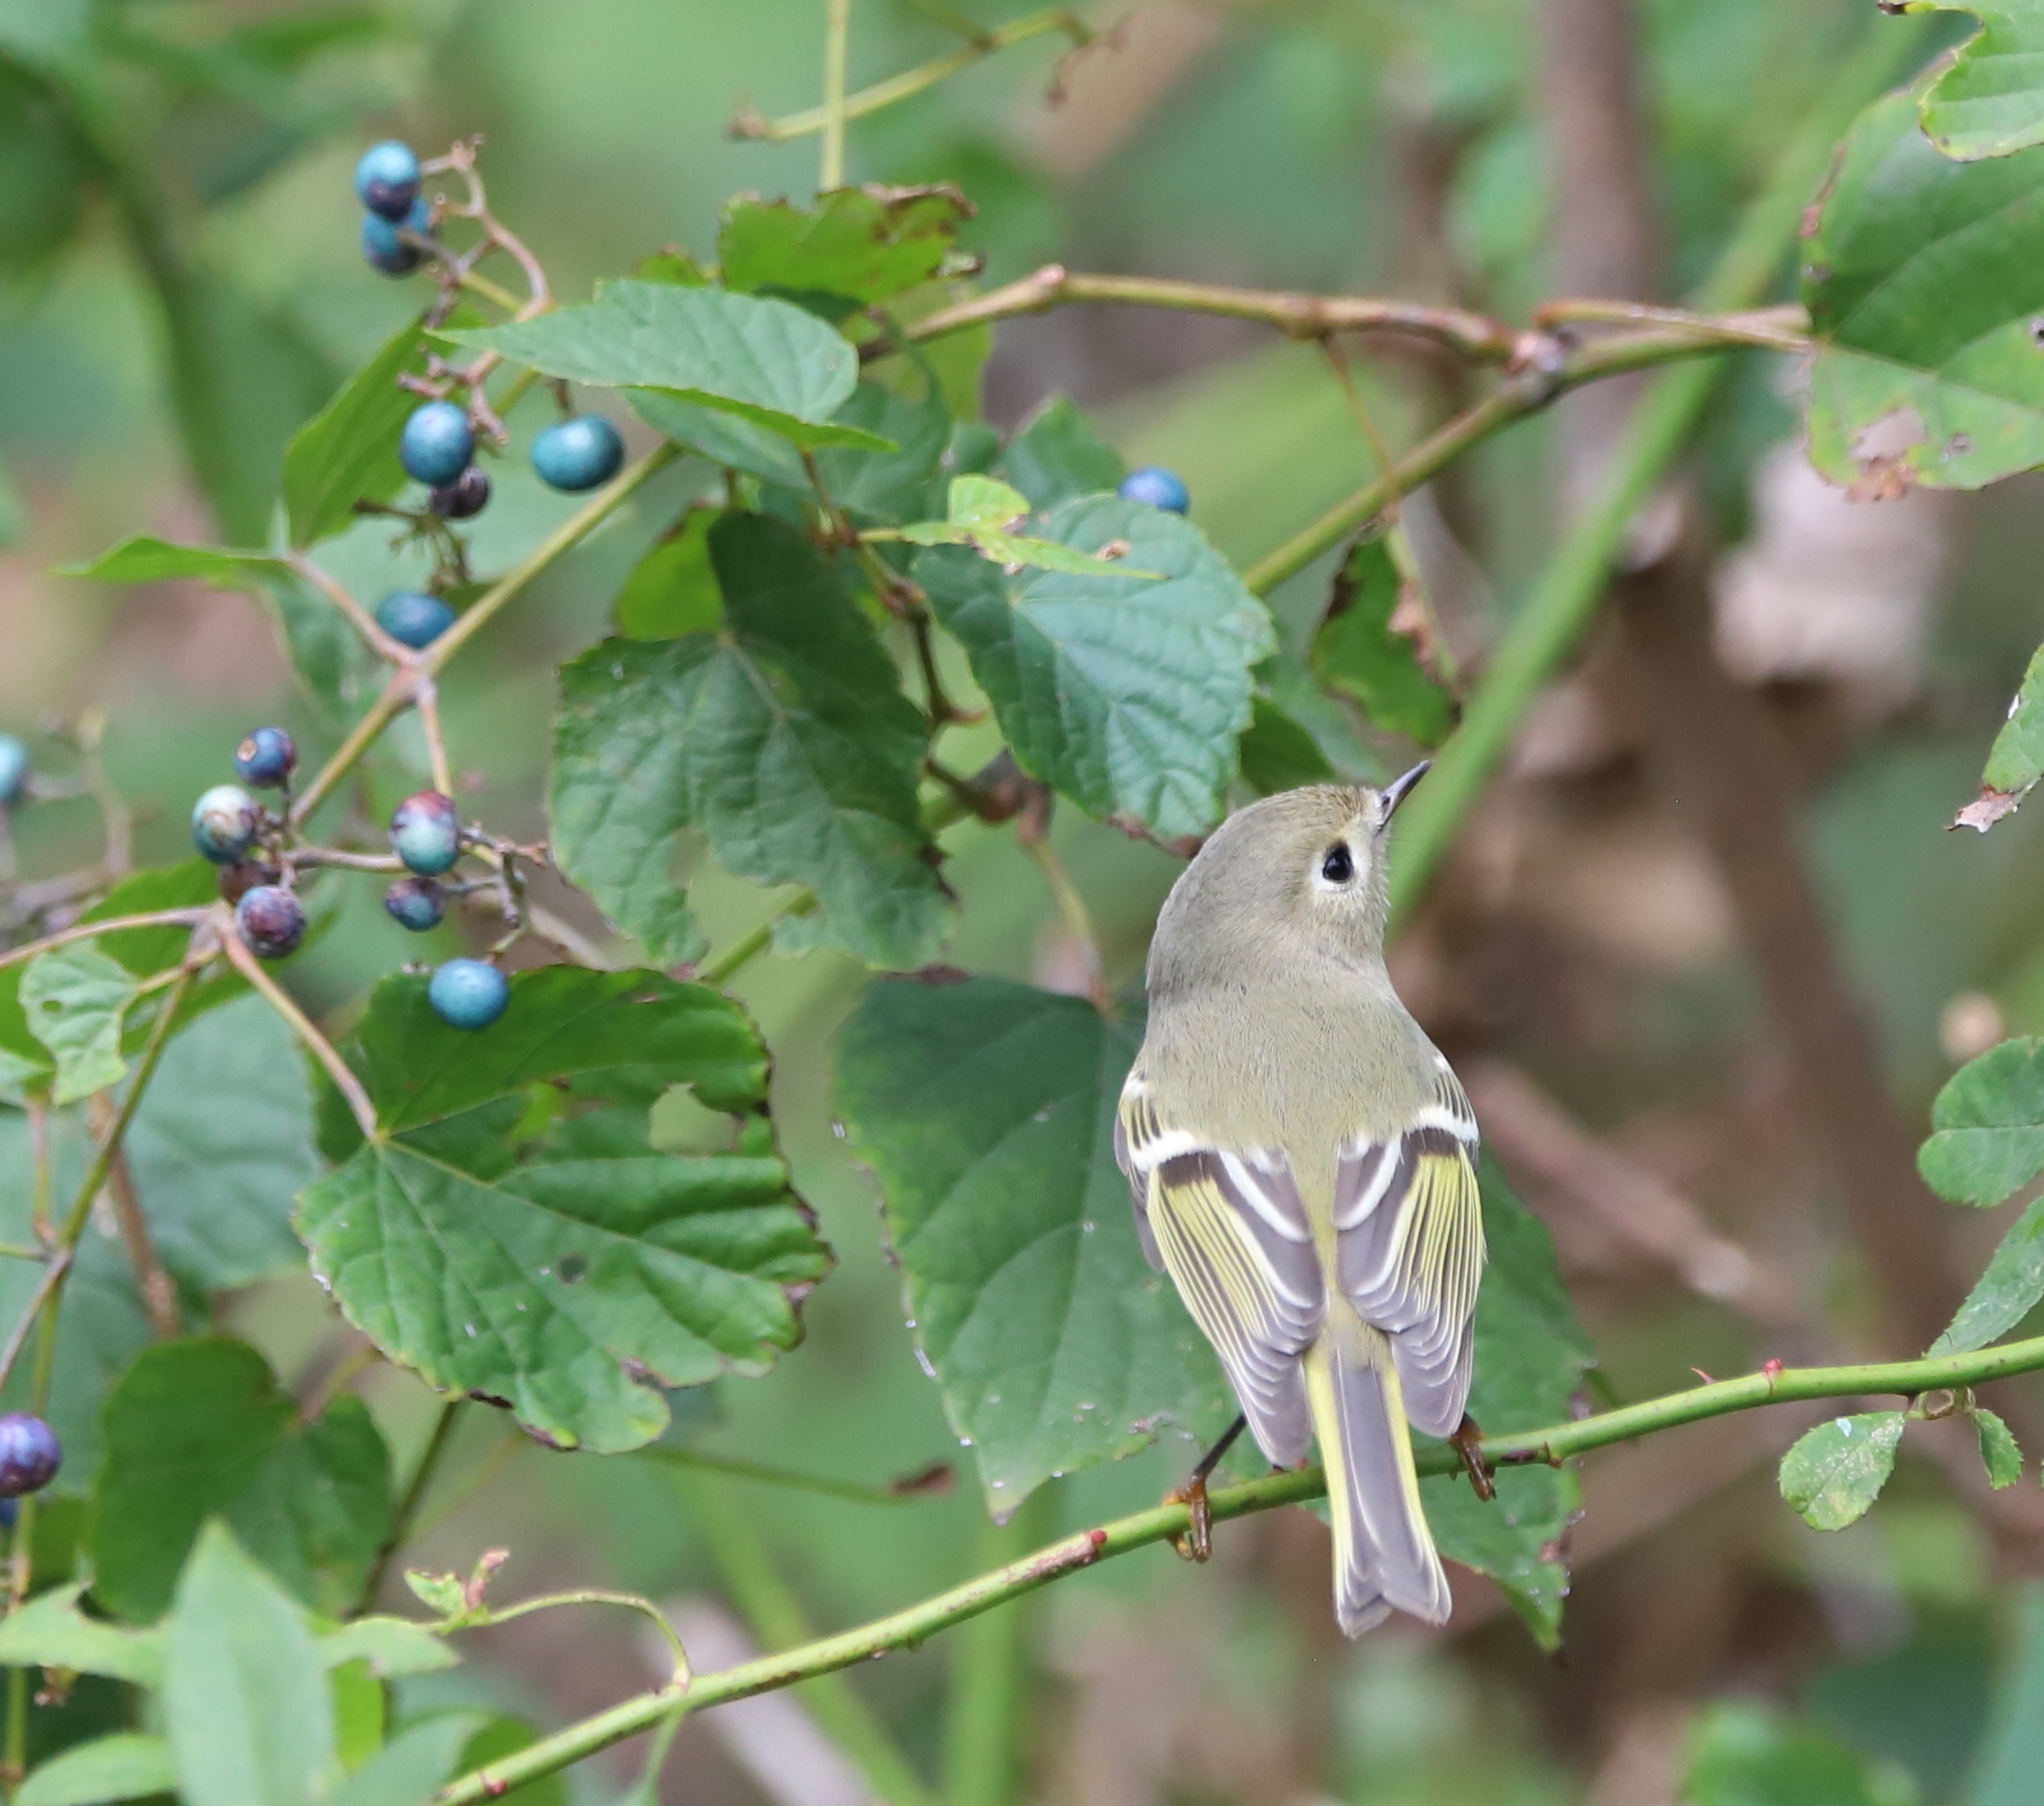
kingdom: Animalia
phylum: Chordata
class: Aves
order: Passeriformes
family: Regulidae
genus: Regulus
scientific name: Regulus calendula
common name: Ruby-crowned kinglet
